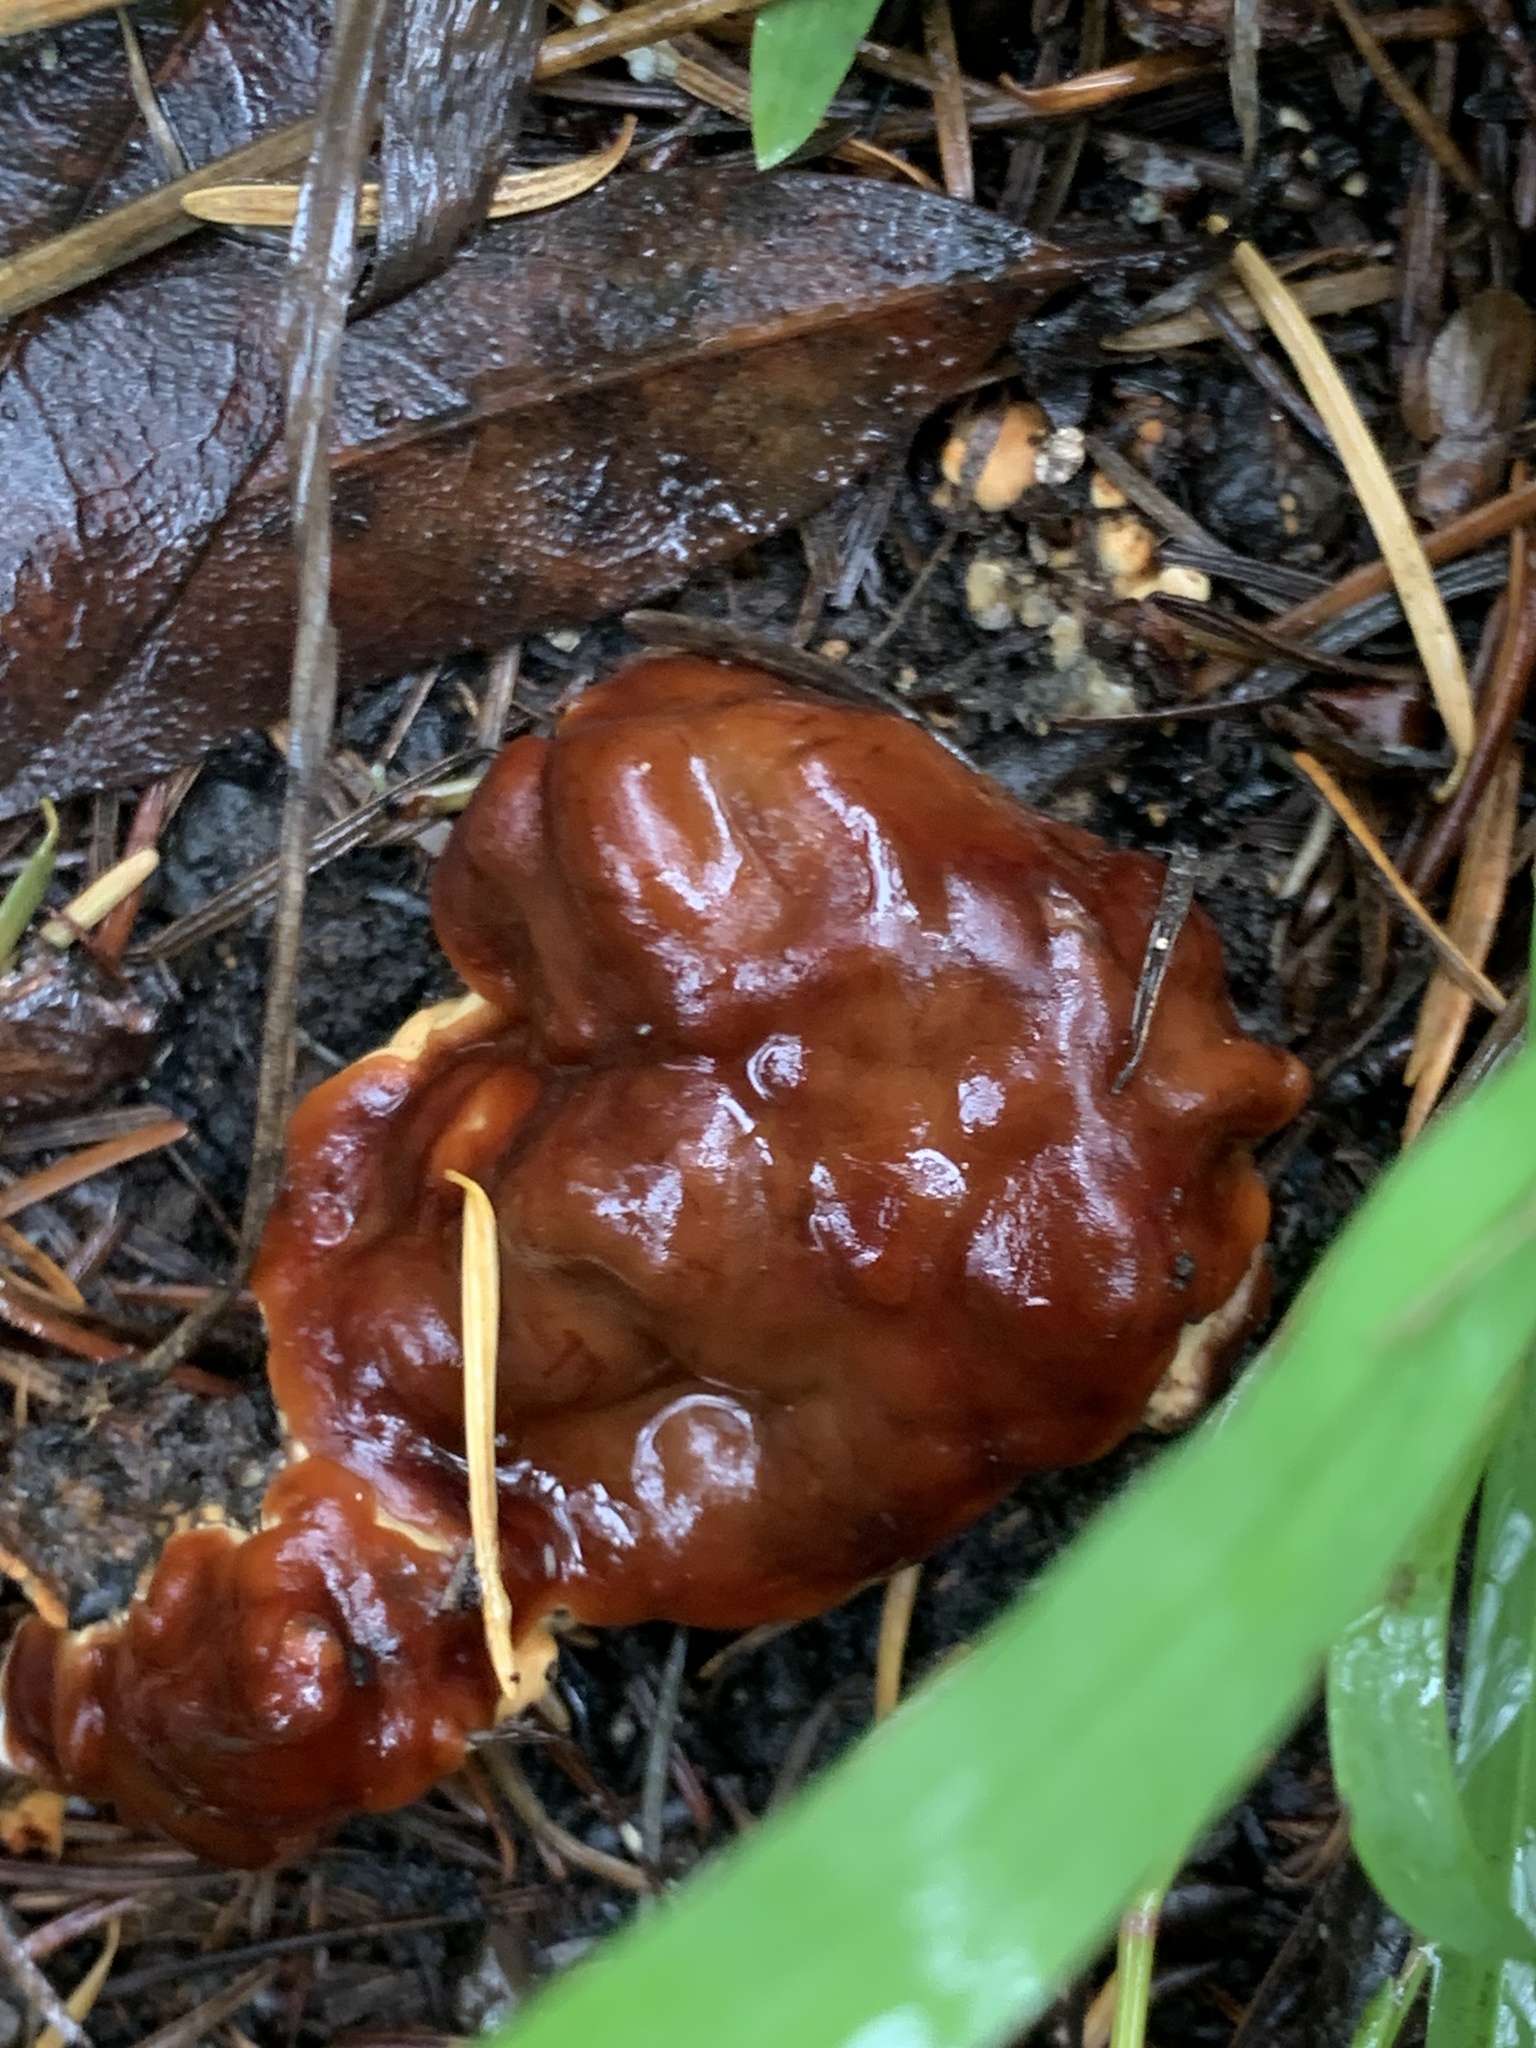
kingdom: Fungi
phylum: Ascomycota
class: Pezizomycetes
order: Pezizales
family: Rhizinaceae
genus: Rhizina
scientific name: Rhizina undulata
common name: Pine firefungus
